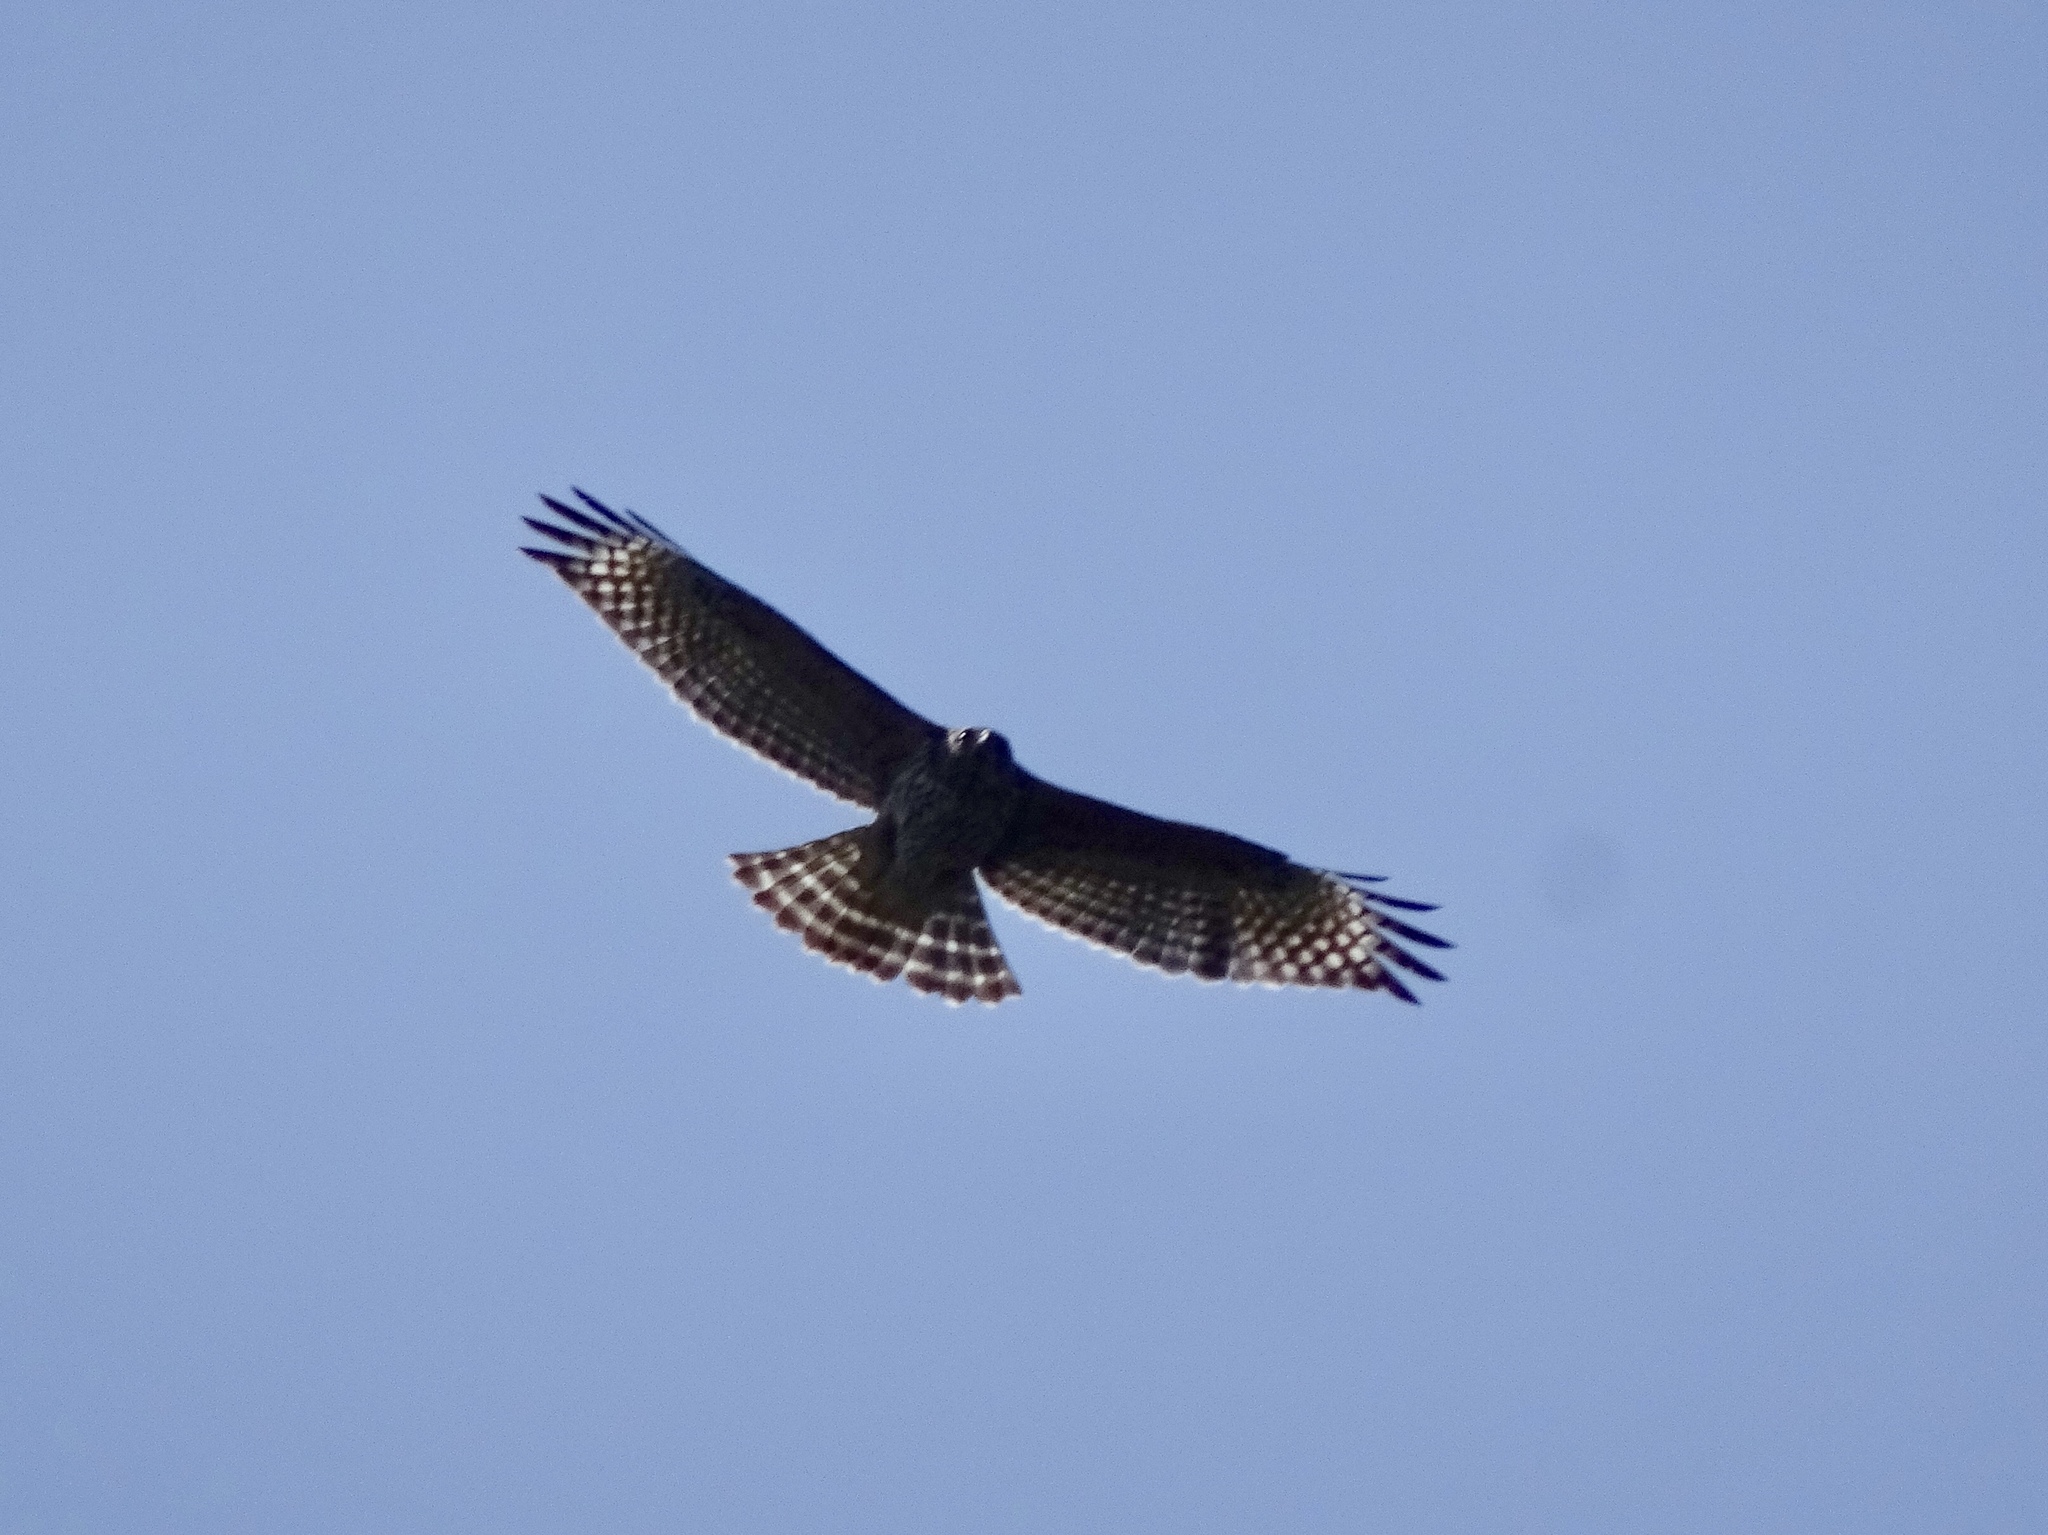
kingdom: Animalia
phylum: Chordata
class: Aves
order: Accipitriformes
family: Accipitridae
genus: Buteo
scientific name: Buteo lineatus
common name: Red-shouldered hawk
